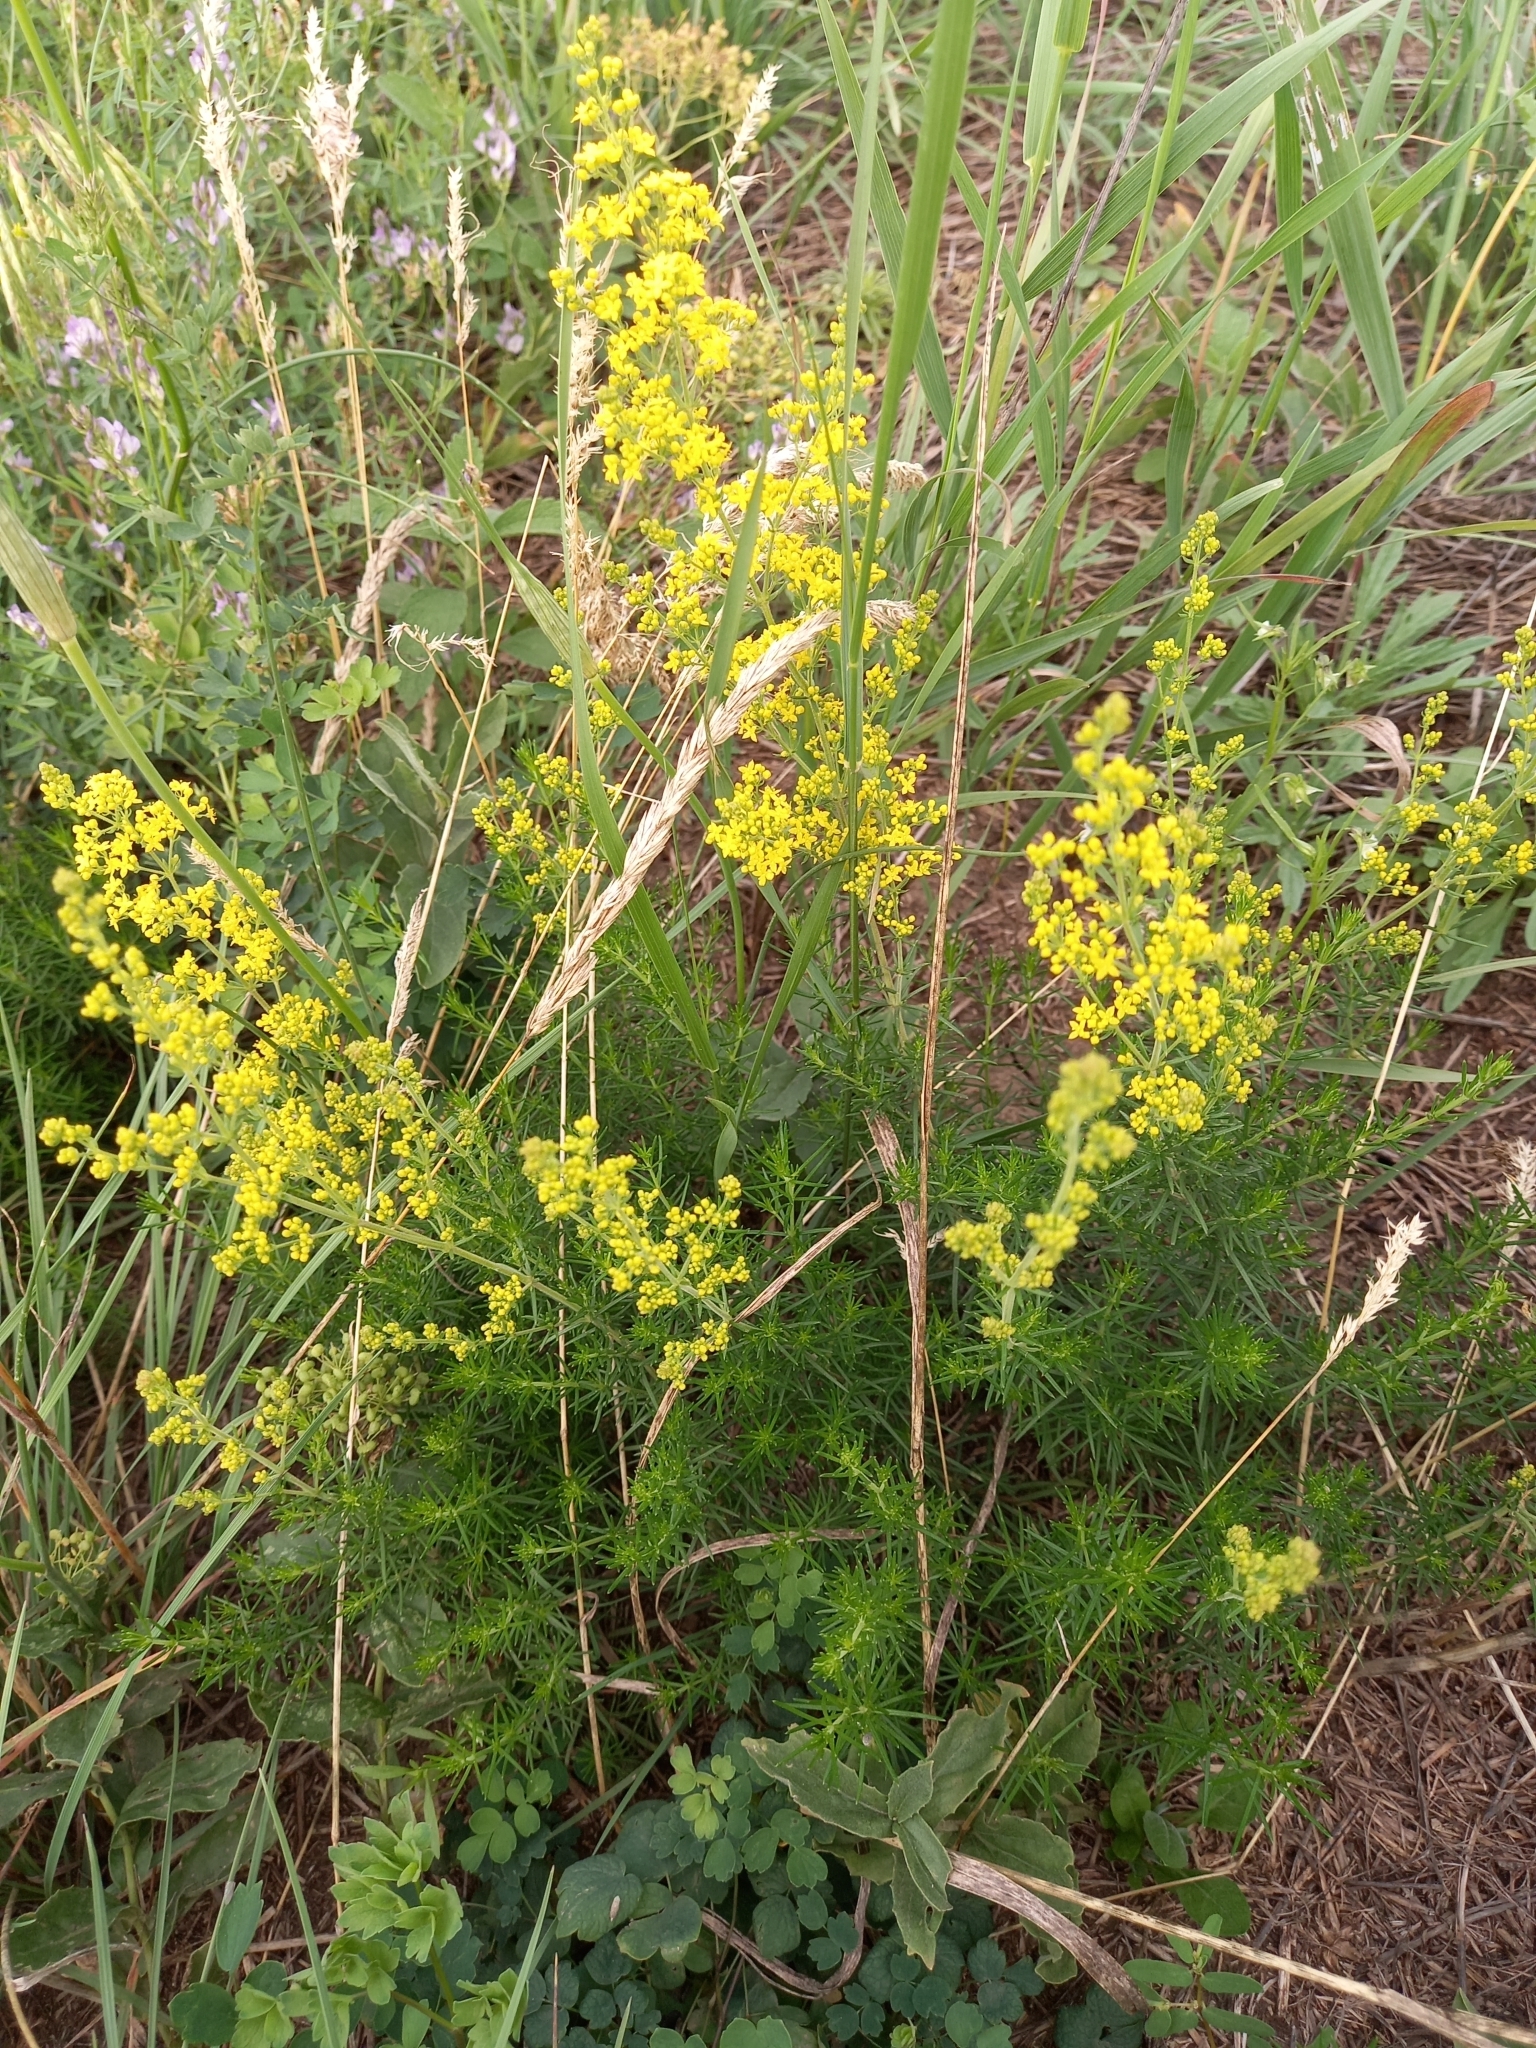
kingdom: Plantae
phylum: Tracheophyta
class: Magnoliopsida
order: Gentianales
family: Rubiaceae
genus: Galium
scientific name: Galium verum
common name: Lady's bedstraw
